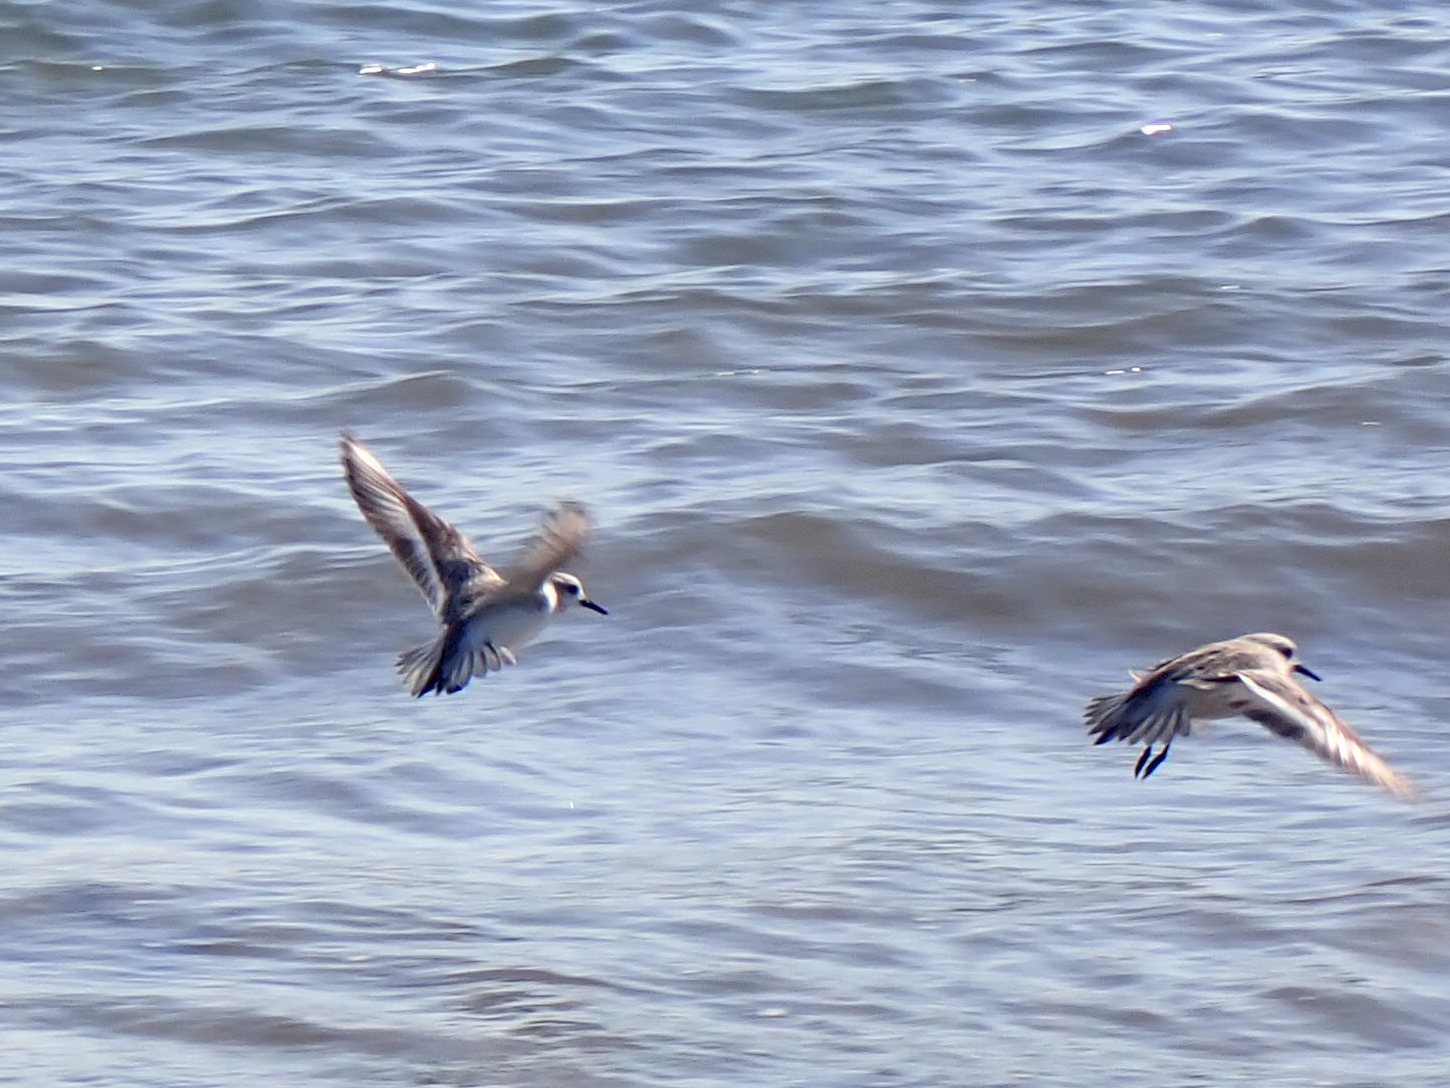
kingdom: Animalia
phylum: Chordata
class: Aves
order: Charadriiformes
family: Scolopacidae
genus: Calidris
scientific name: Calidris alba
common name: Sanderling
